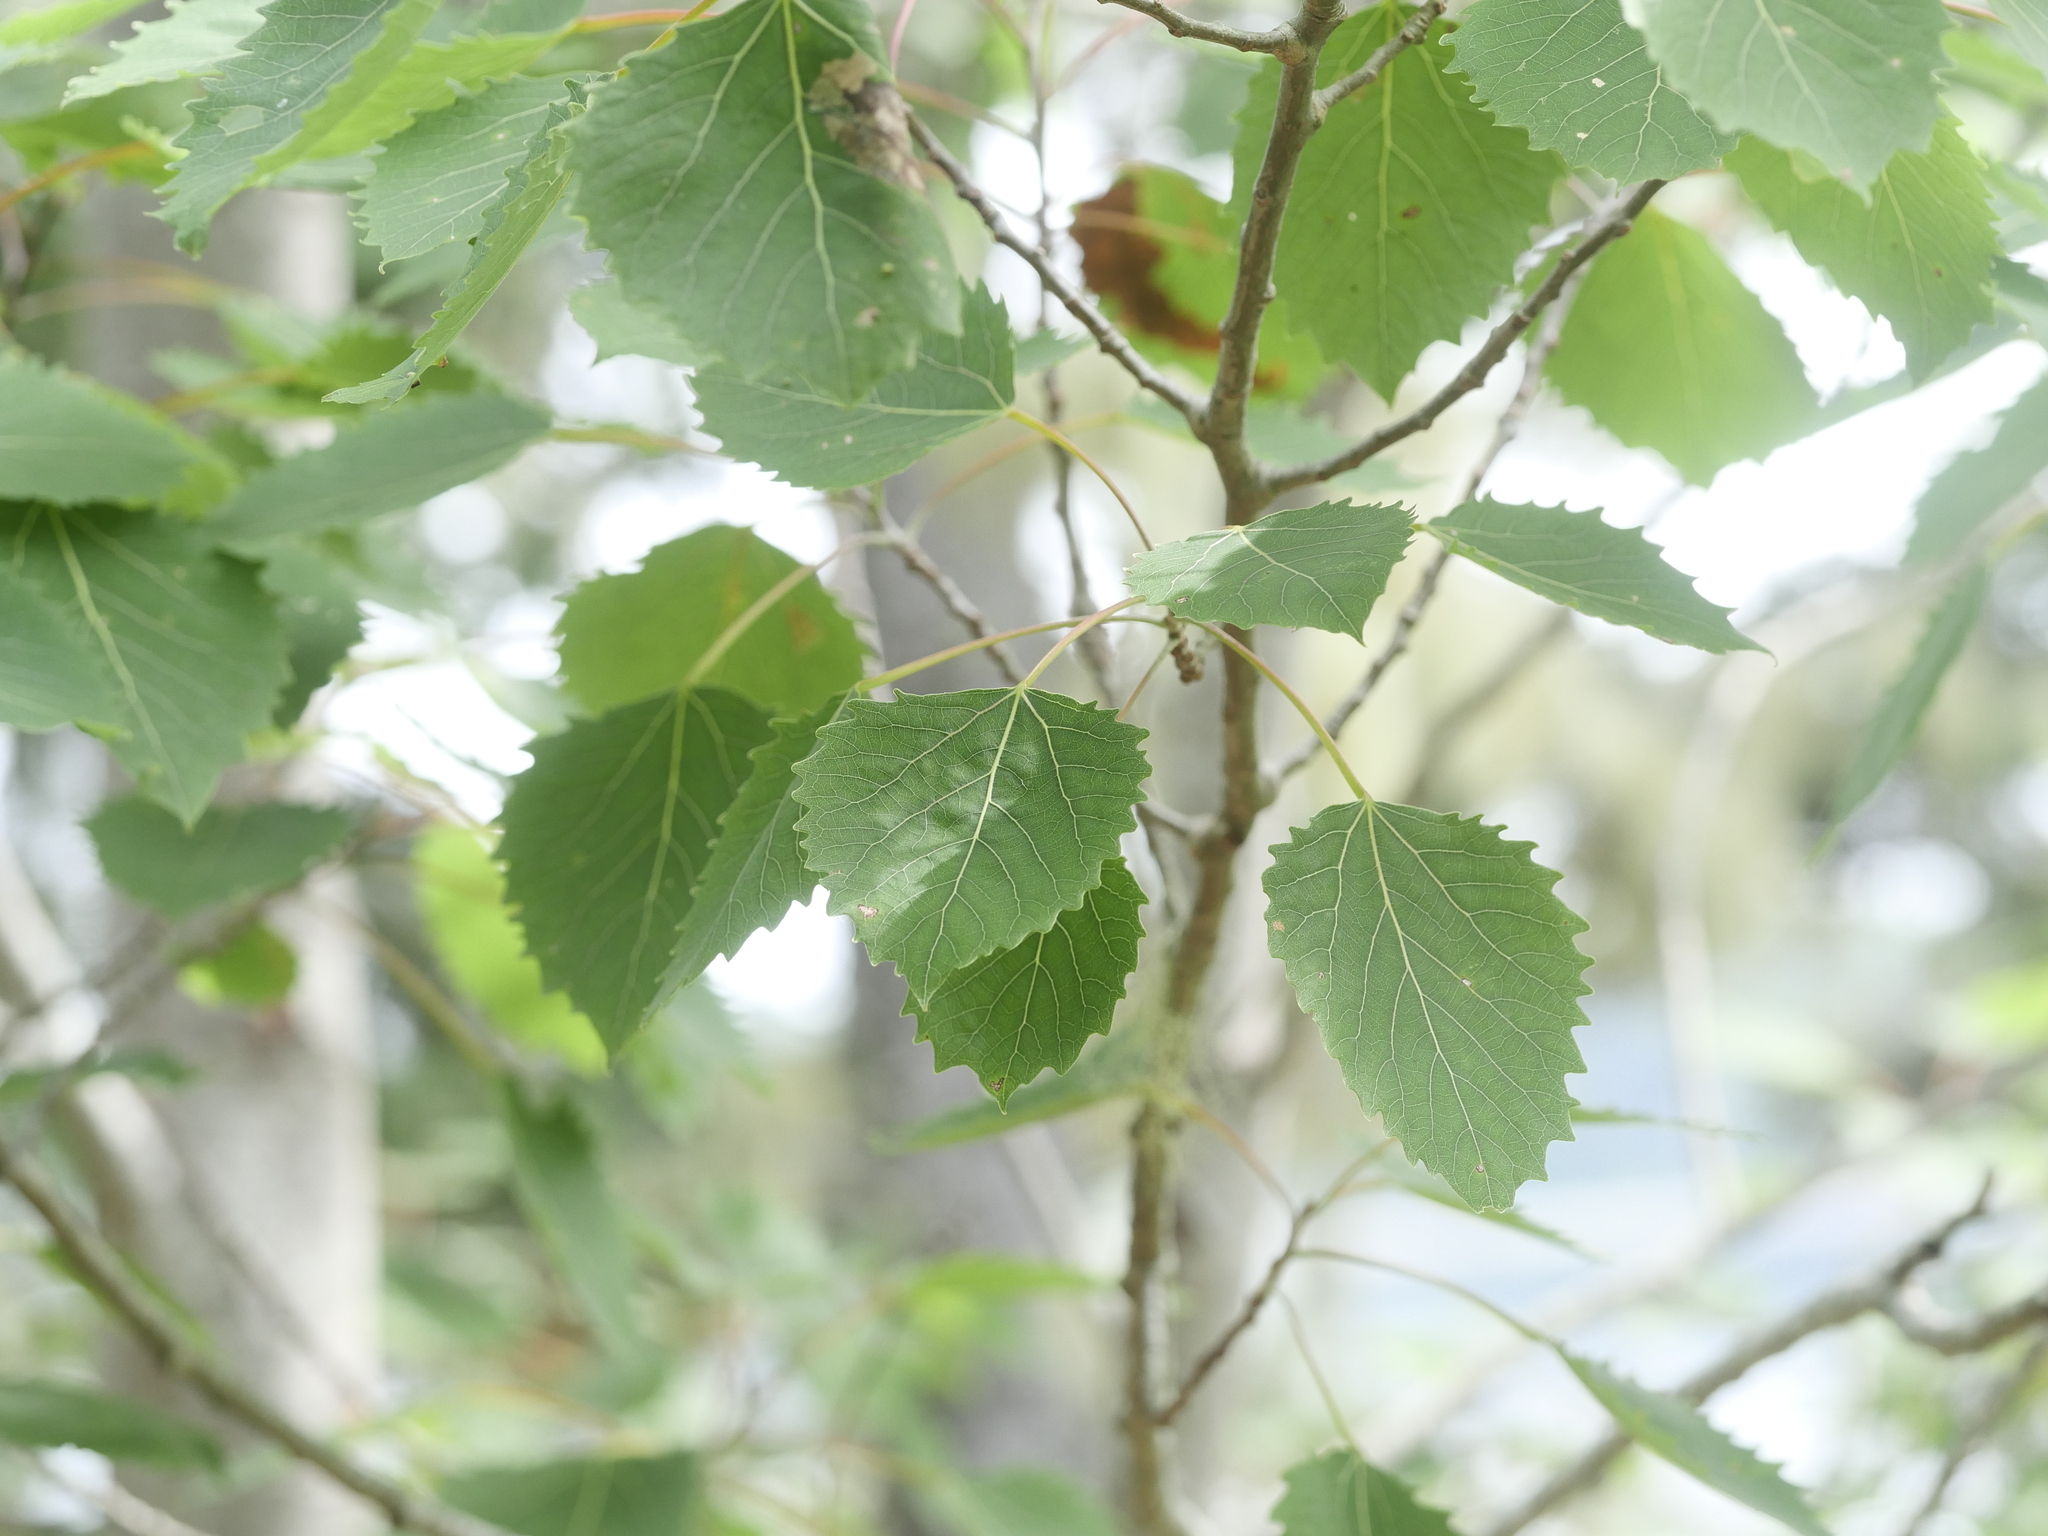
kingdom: Plantae
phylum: Tracheophyta
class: Magnoliopsida
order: Malpighiales
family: Salicaceae
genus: Populus
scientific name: Populus grandidentata
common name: Bigtooth aspen
